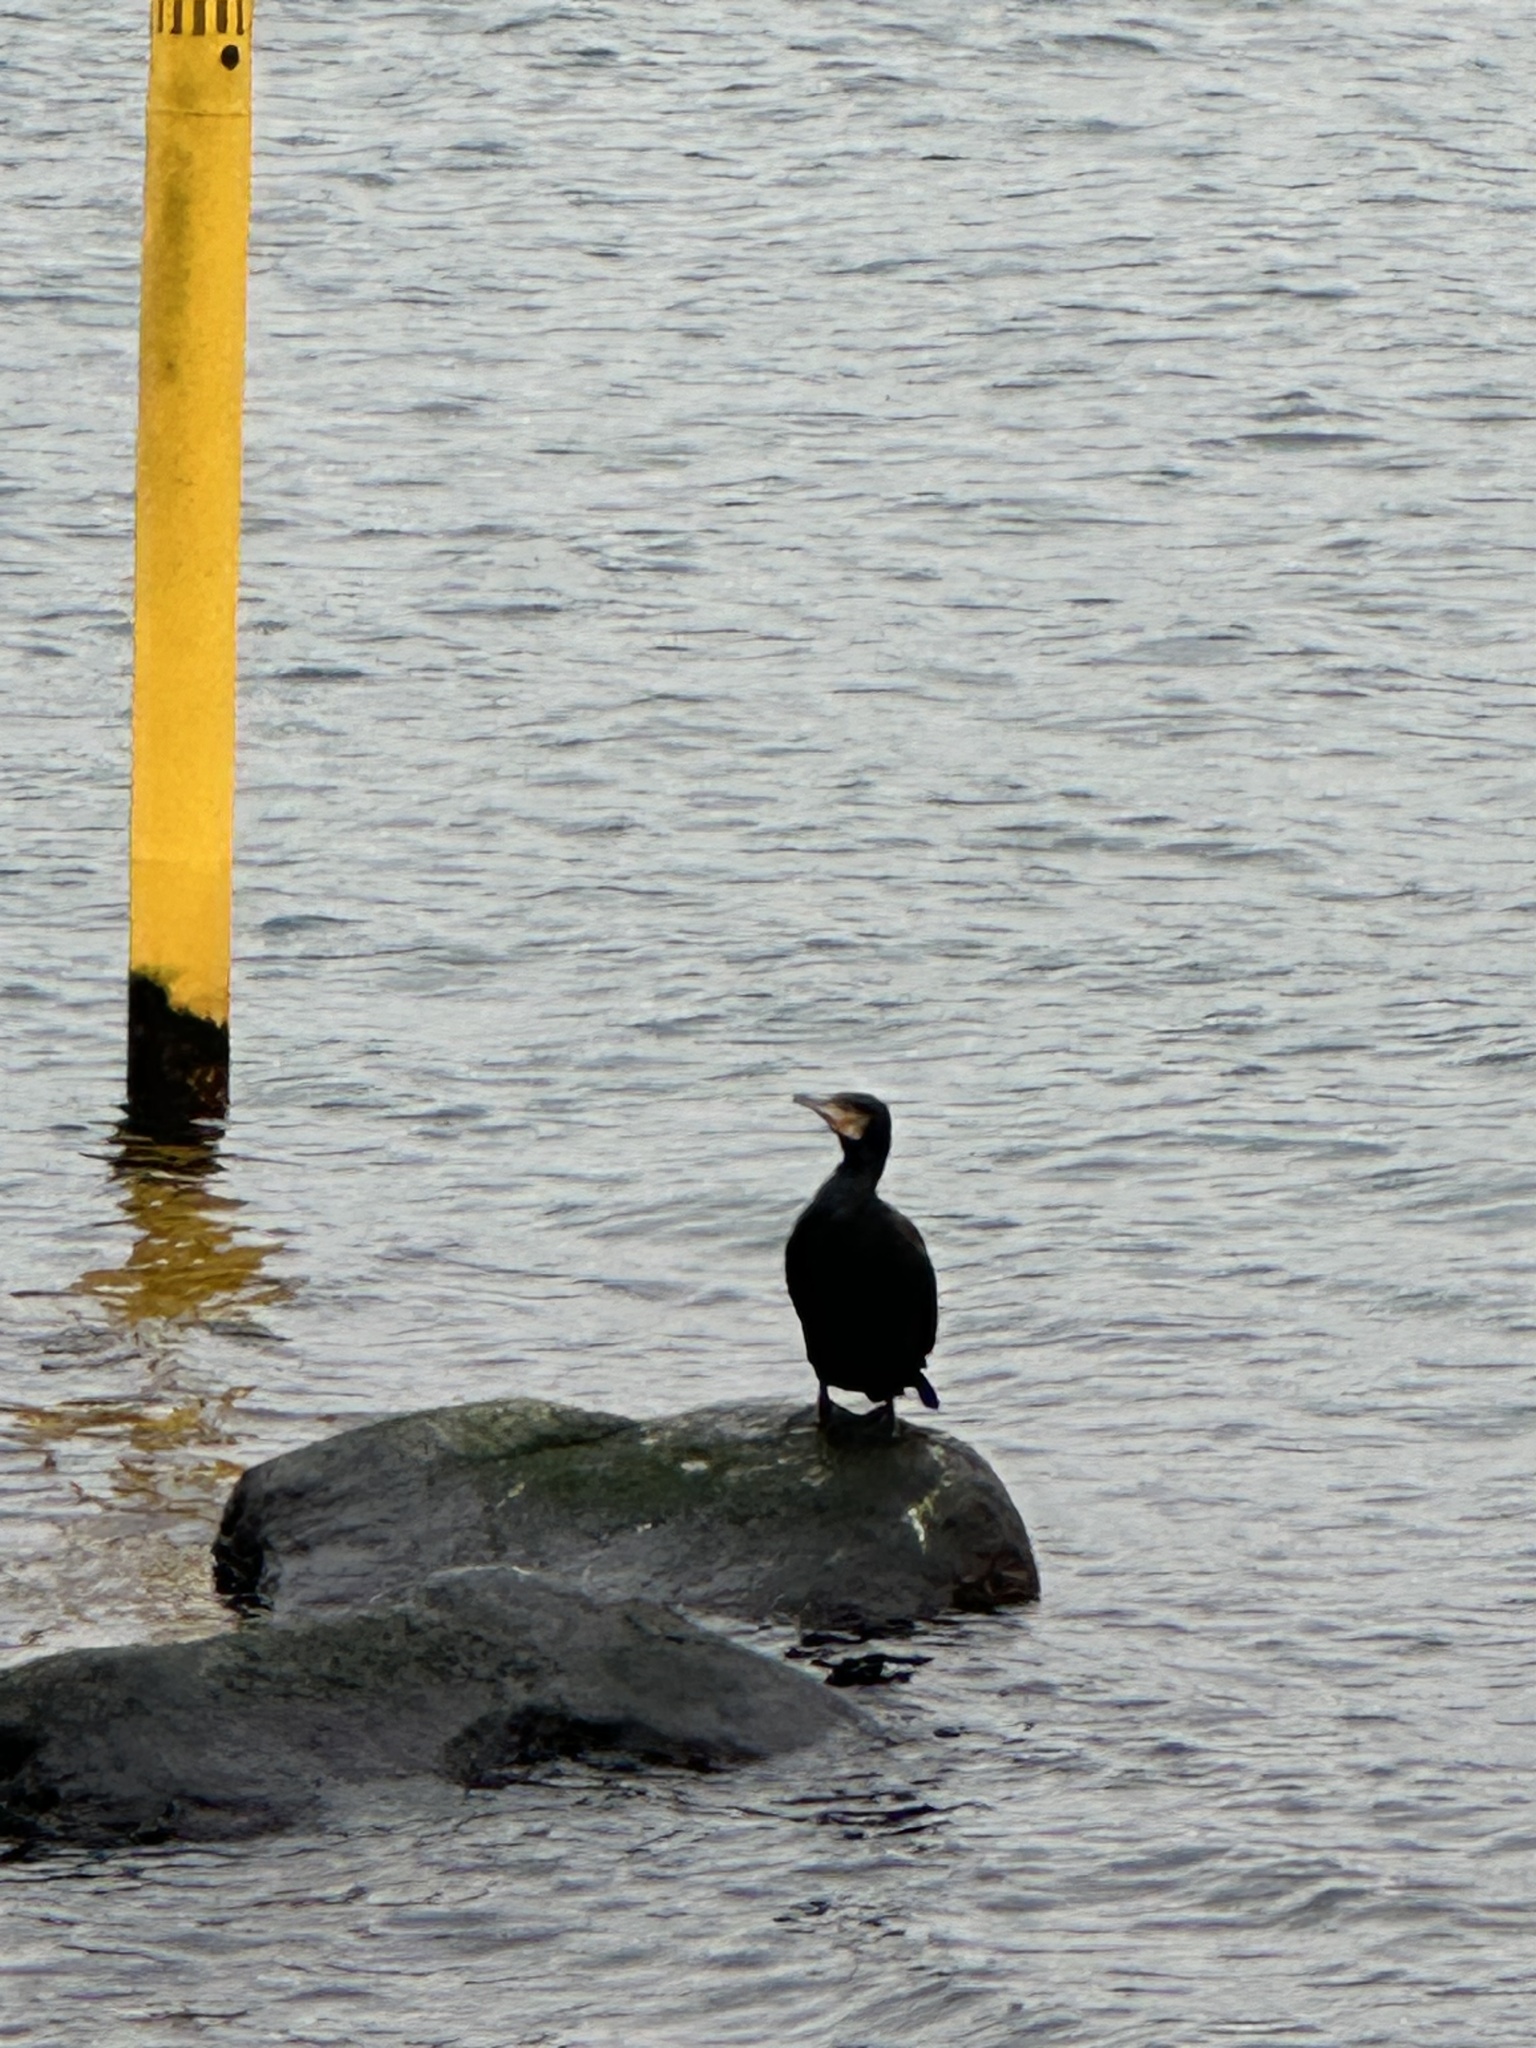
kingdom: Animalia
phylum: Chordata
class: Aves
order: Suliformes
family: Phalacrocoracidae
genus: Phalacrocorax
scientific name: Phalacrocorax carbo
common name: Great cormorant
